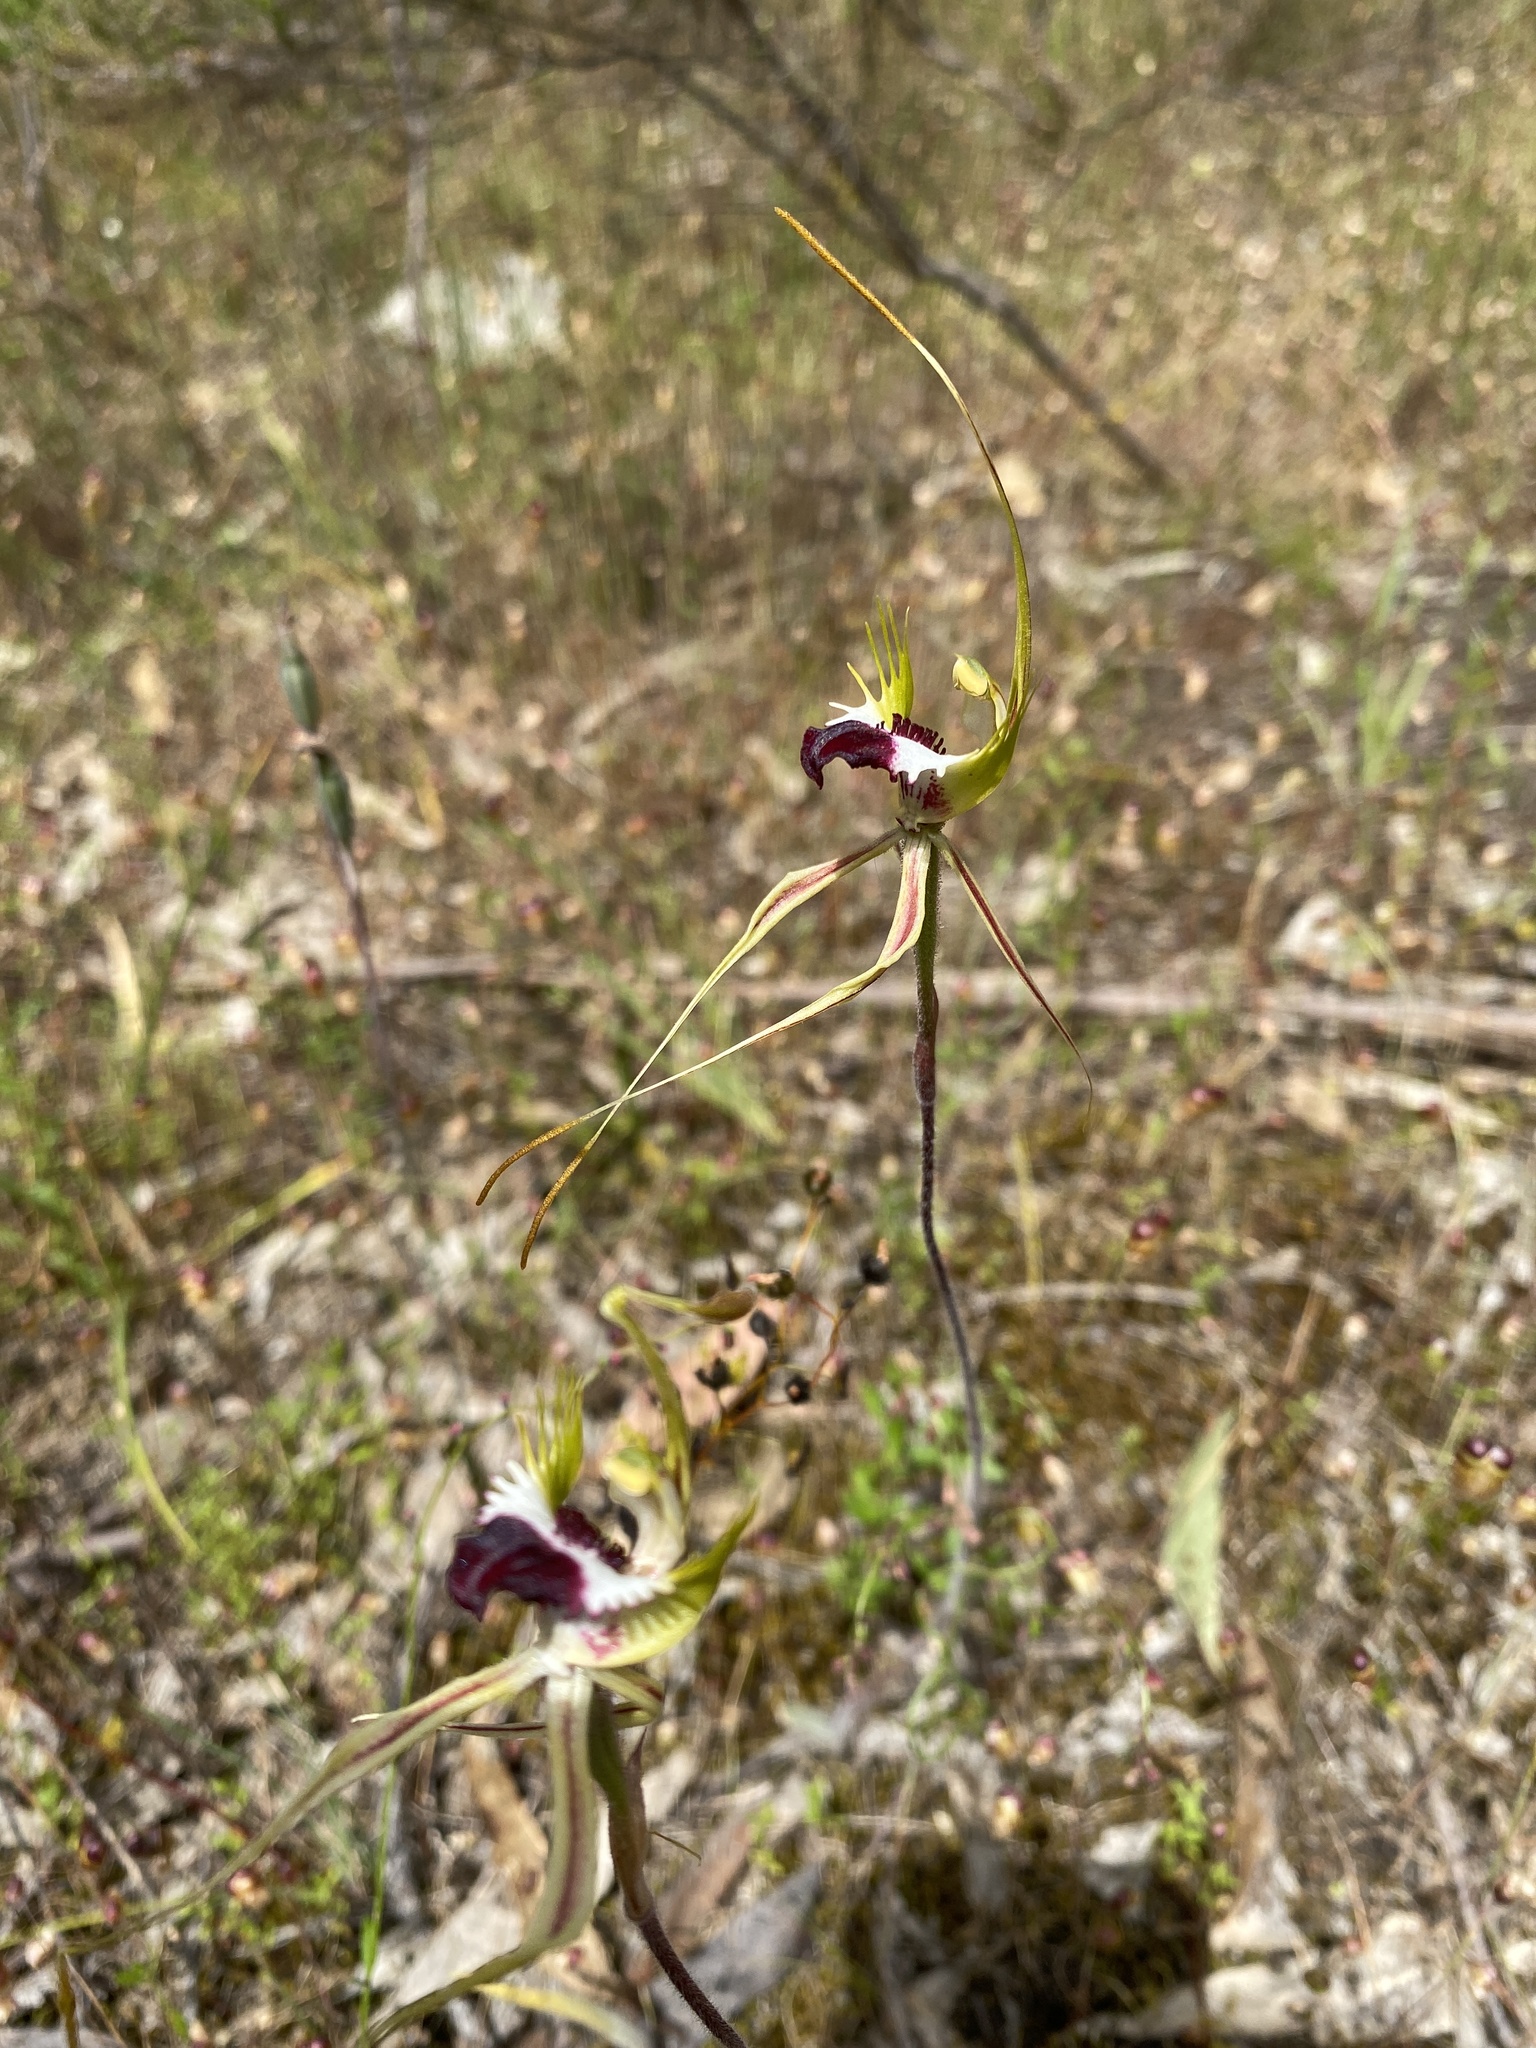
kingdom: Plantae
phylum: Tracheophyta
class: Liliopsida
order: Asparagales
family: Orchidaceae
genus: Caladenia
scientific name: Caladenia tentaculata
